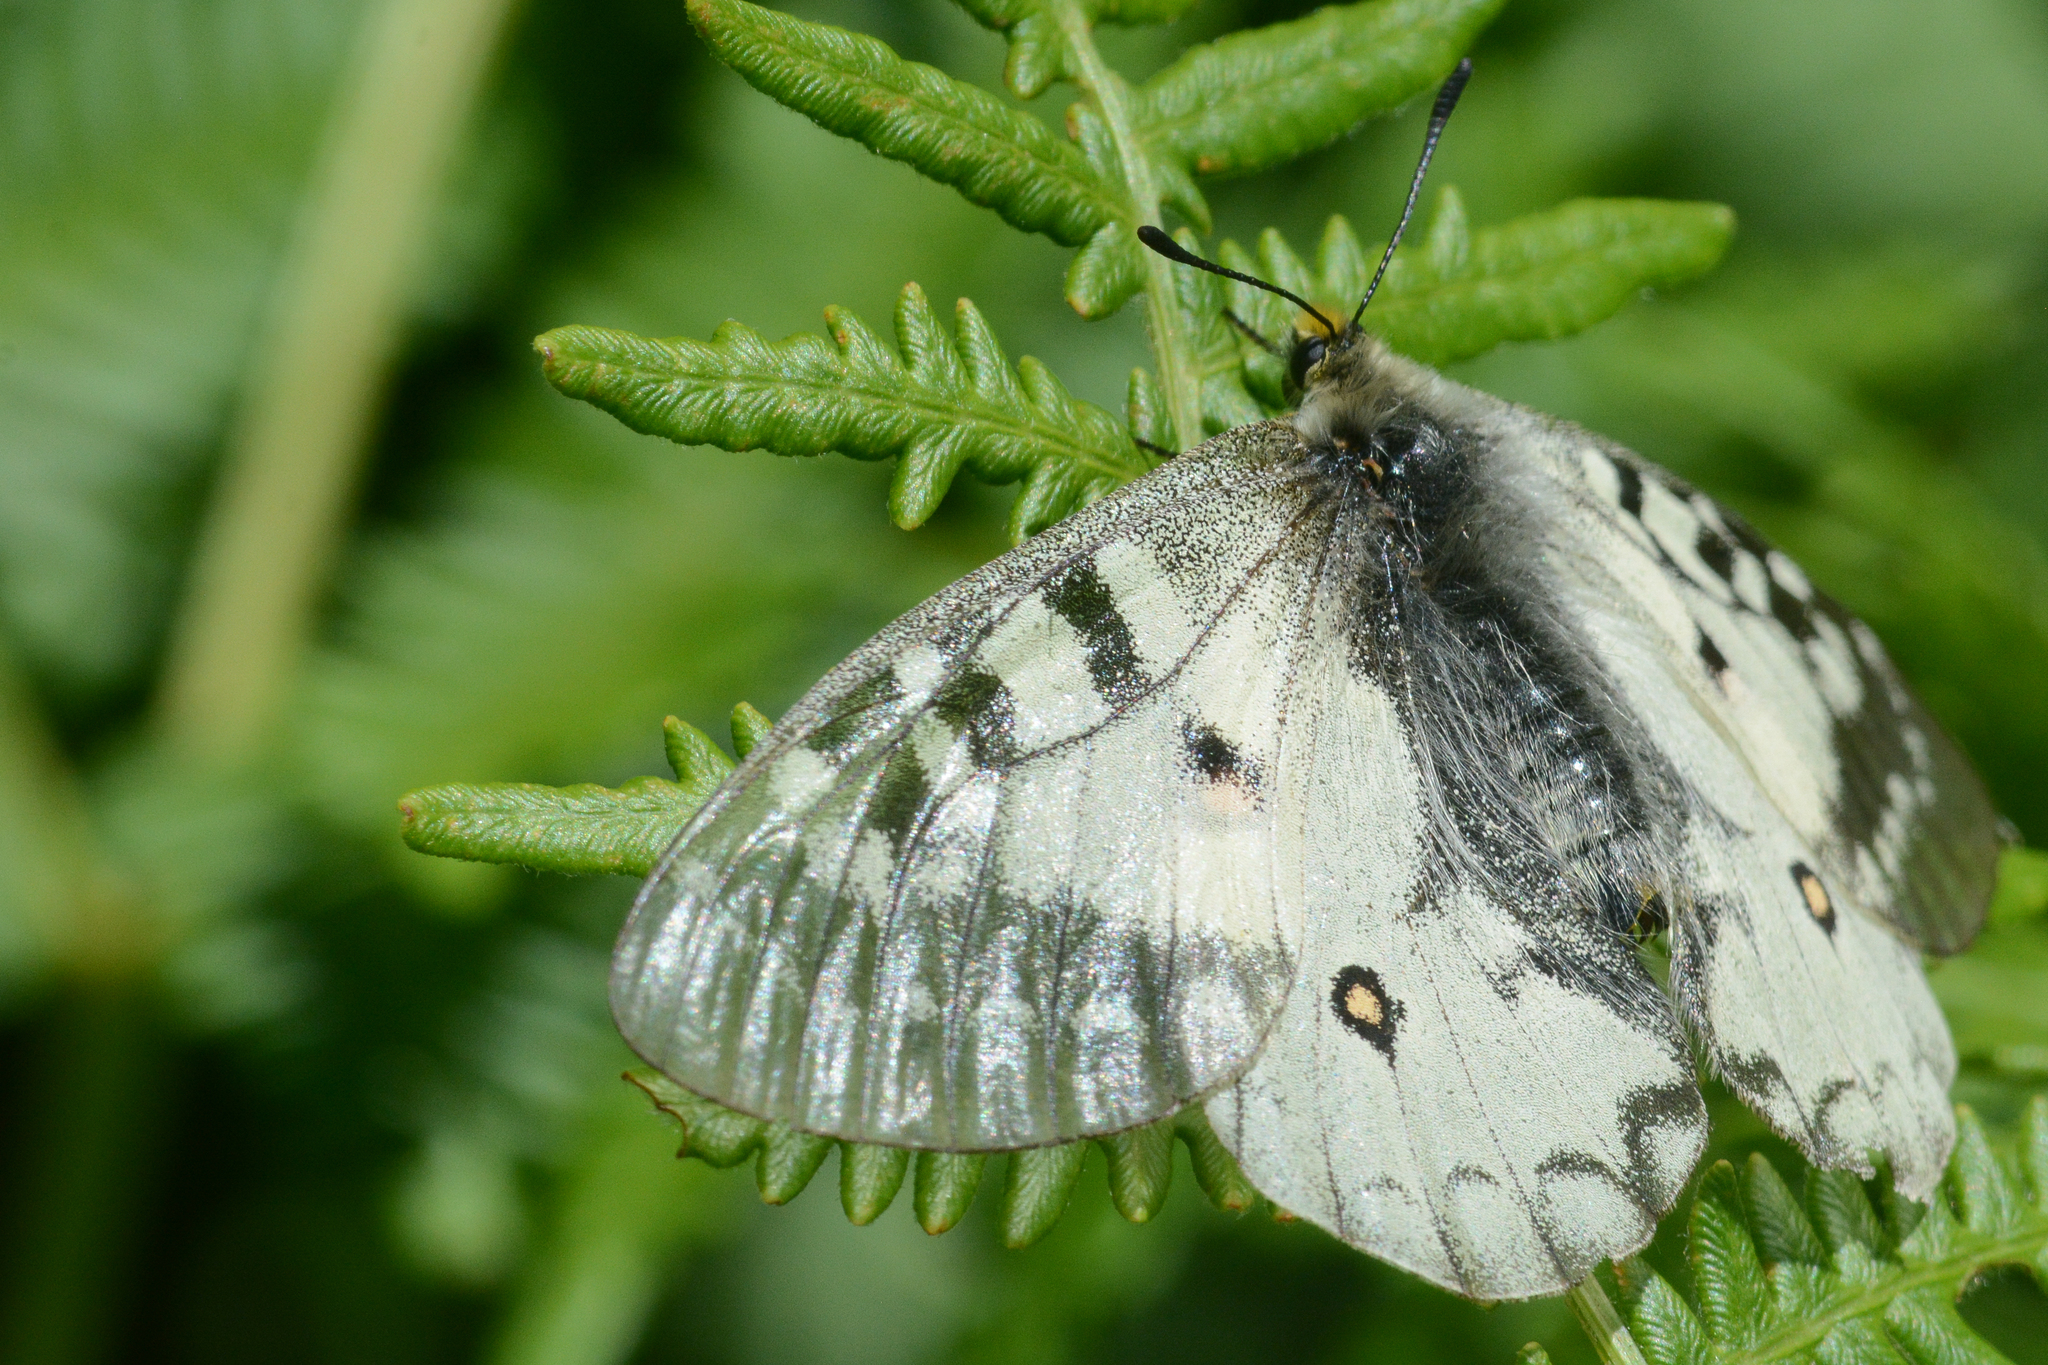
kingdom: Animalia
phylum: Arthropoda
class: Insecta
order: Lepidoptera
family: Papilionidae
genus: Parnassius
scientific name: Parnassius clodius
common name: American apollo
